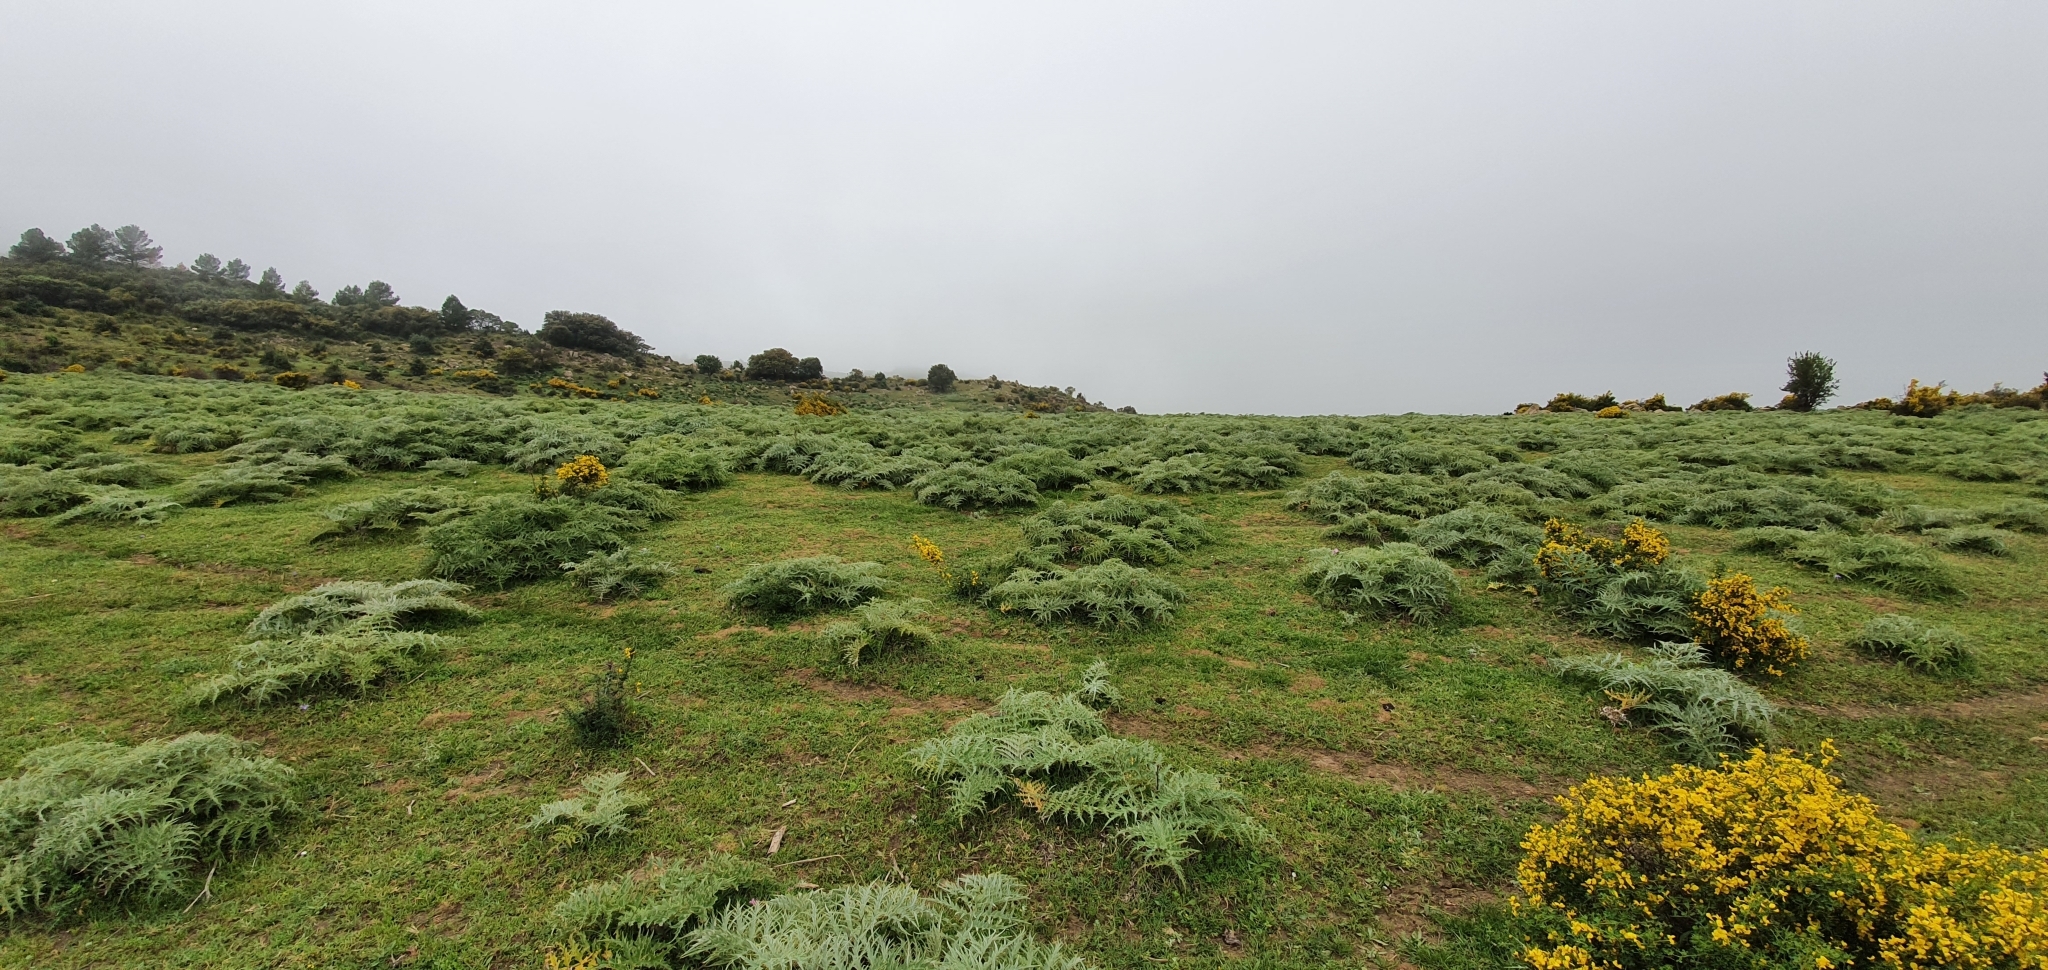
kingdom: Plantae
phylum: Tracheophyta
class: Magnoliopsida
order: Asterales
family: Asteraceae
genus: Cynara
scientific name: Cynara cardunculus
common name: Globe artichoke
